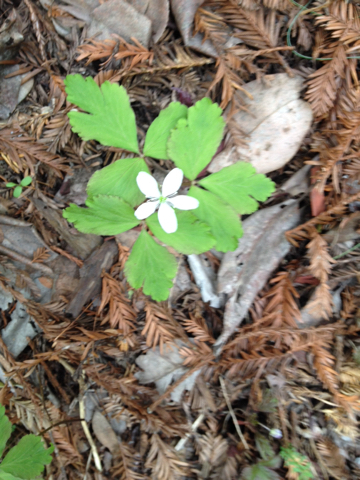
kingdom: Plantae
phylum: Tracheophyta
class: Magnoliopsida
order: Ranunculales
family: Ranunculaceae
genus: Anemone
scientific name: Anemone
